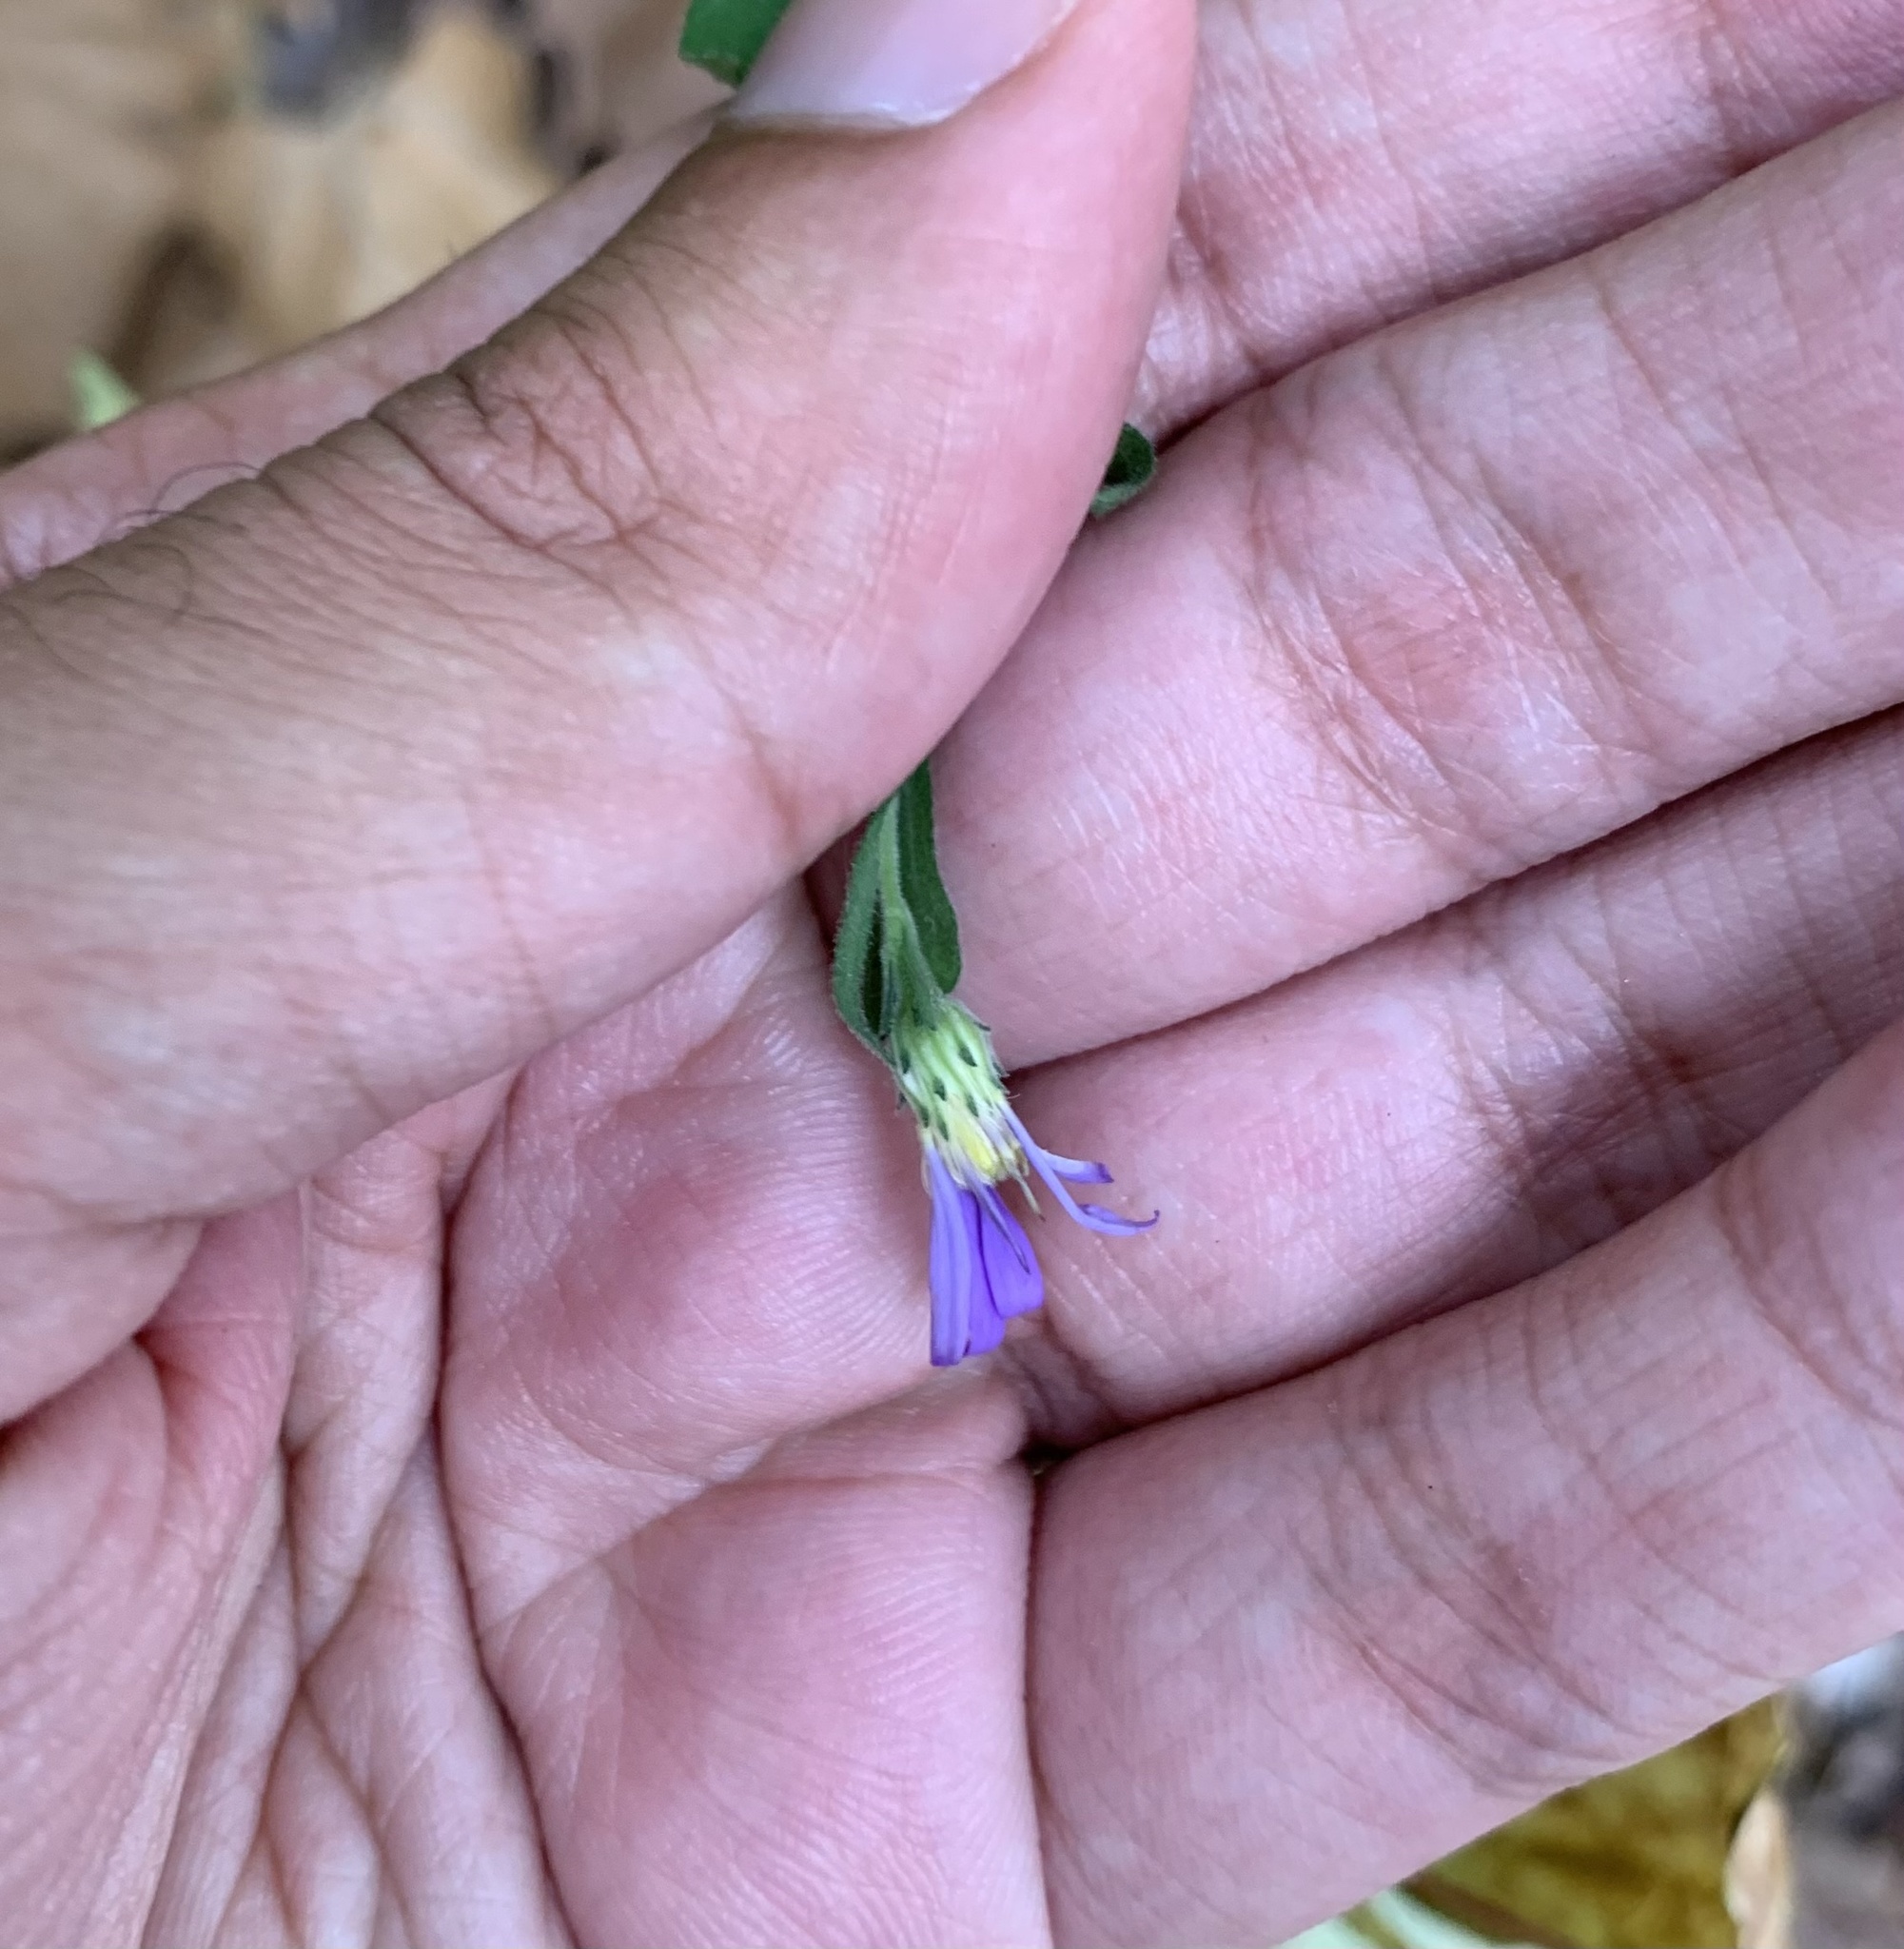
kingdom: Plantae
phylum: Tracheophyta
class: Magnoliopsida
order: Asterales
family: Asteraceae
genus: Symphyotrichum
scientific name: Symphyotrichum patens
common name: Late purple aster
